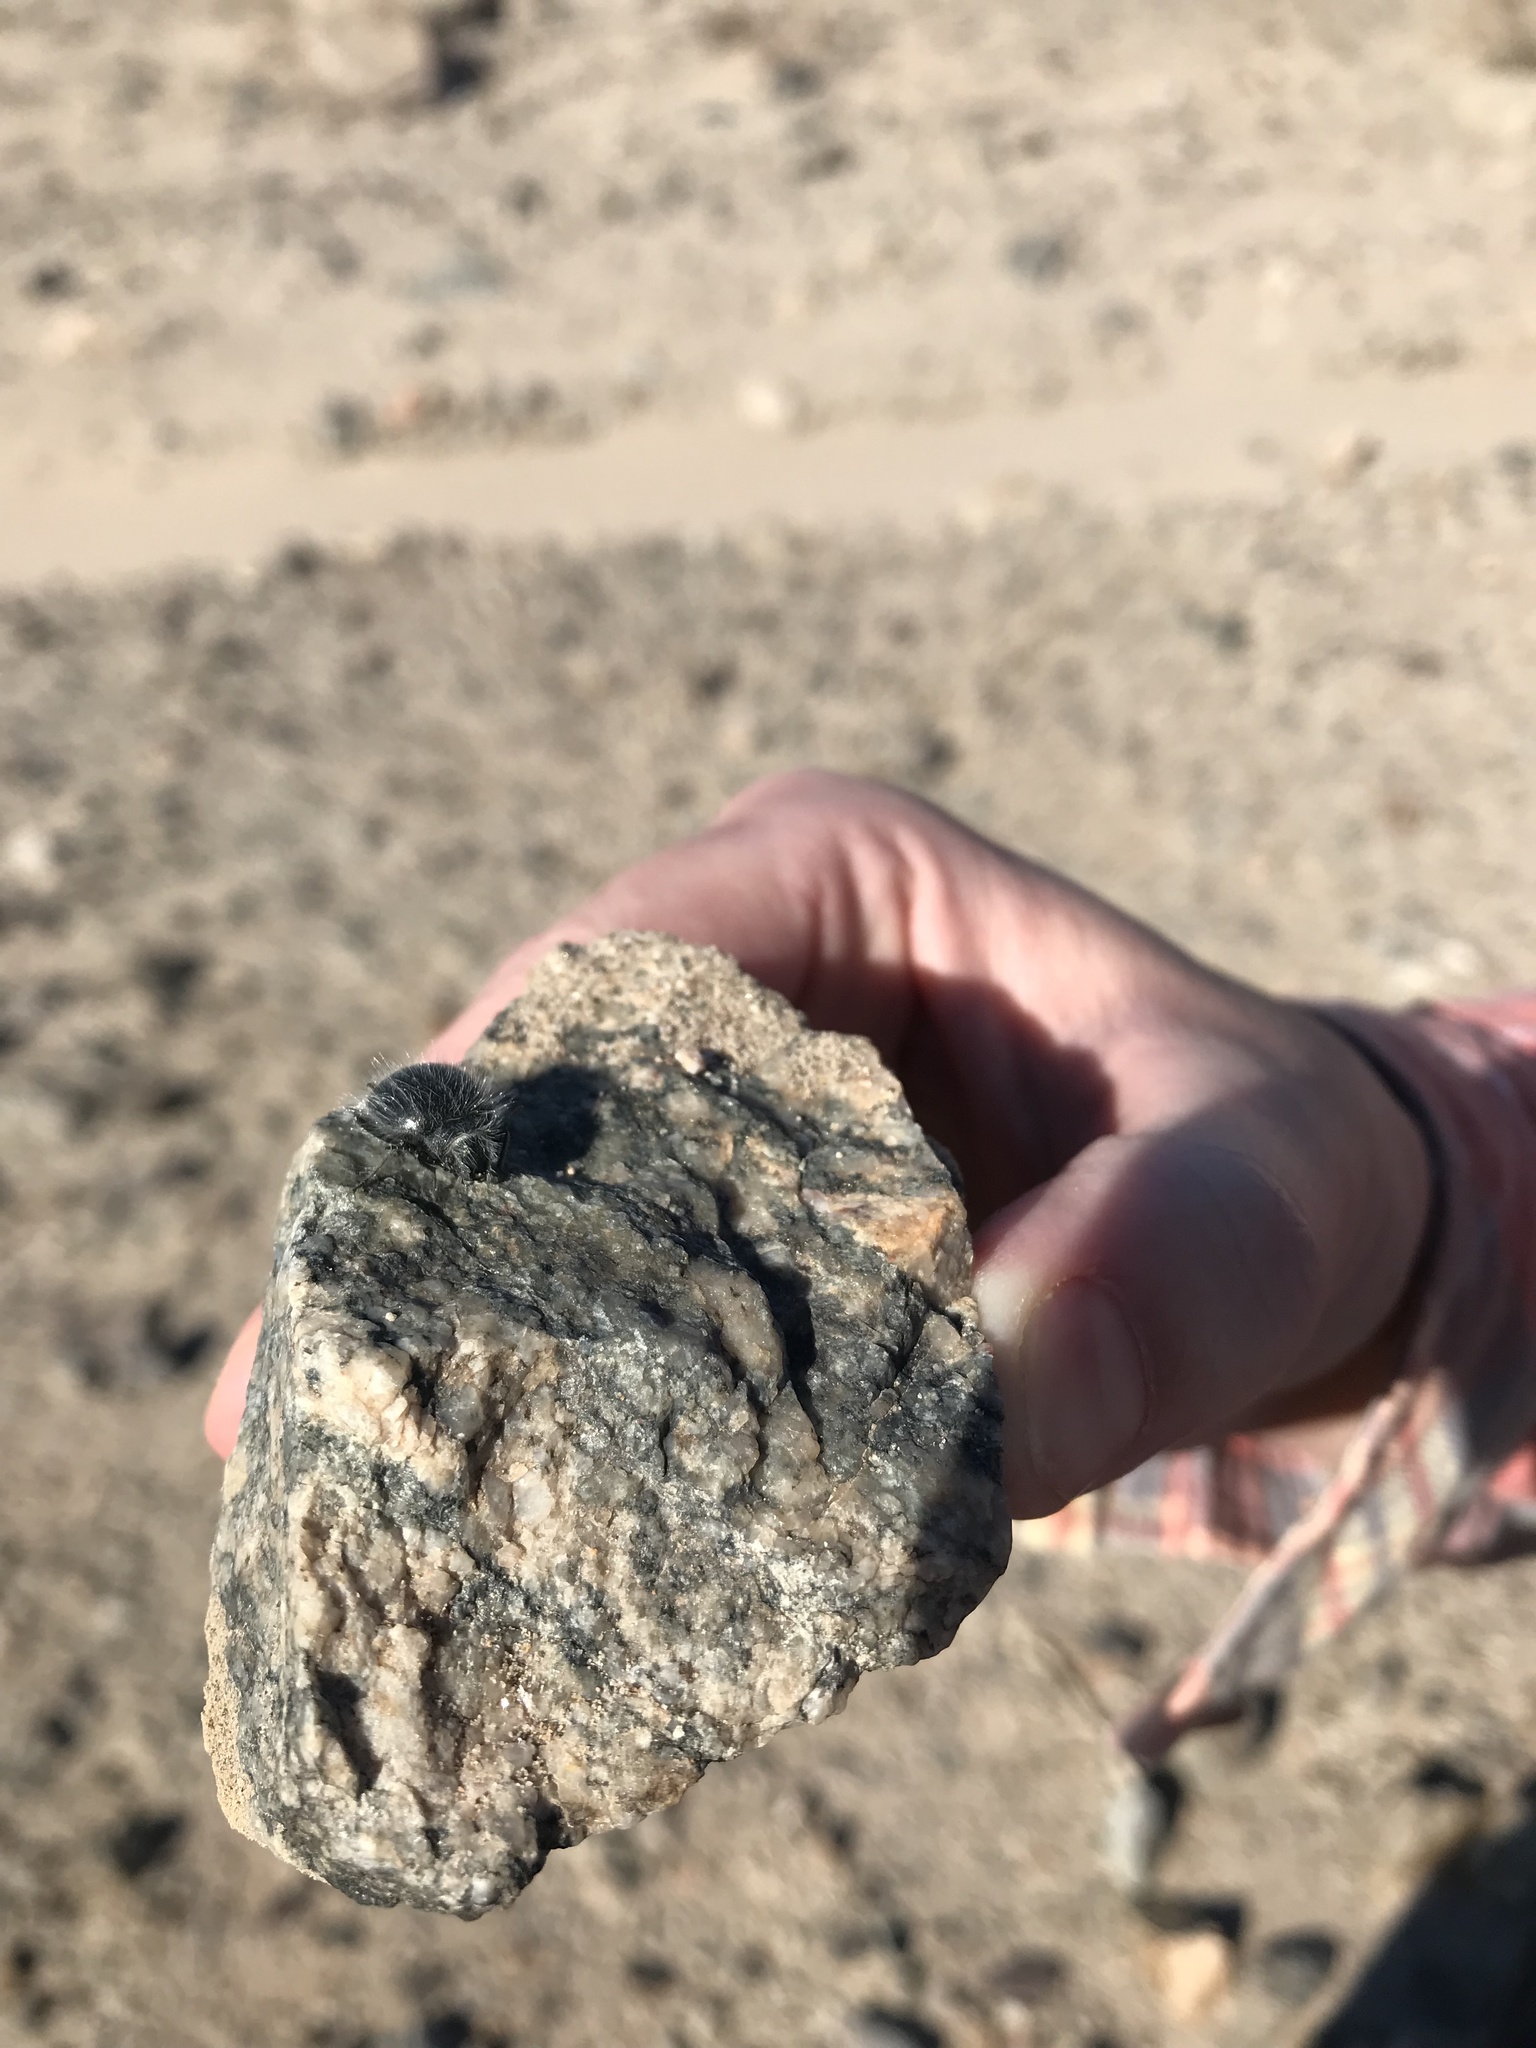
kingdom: Animalia
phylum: Arthropoda
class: Insecta
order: Coleoptera
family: Tenebrionidae
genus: Edrotes
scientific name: Edrotes ventricosus
